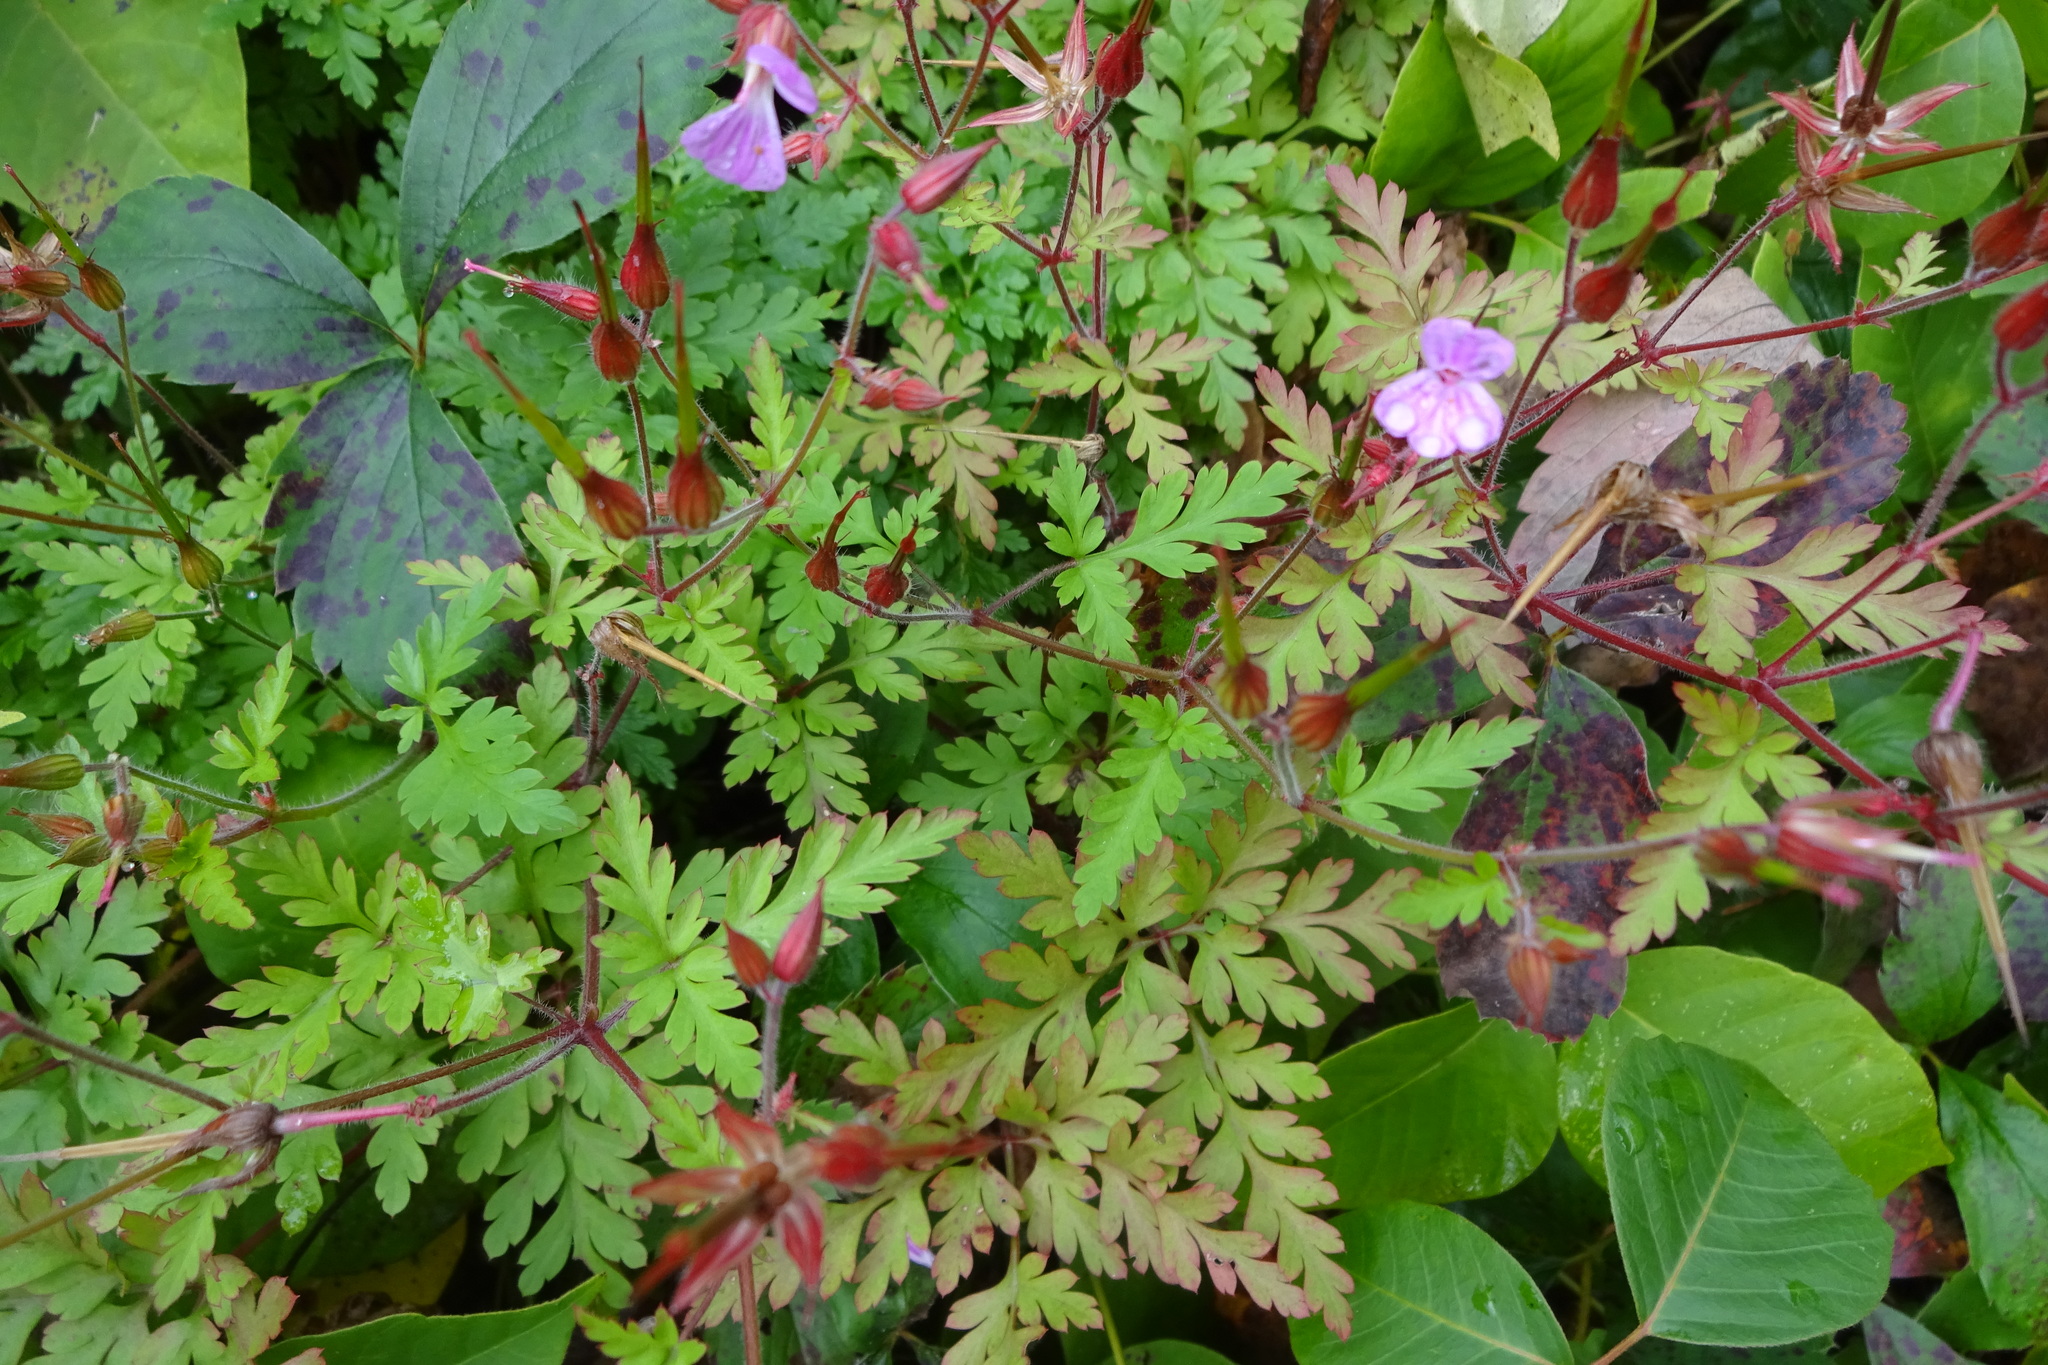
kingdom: Plantae
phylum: Tracheophyta
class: Magnoliopsida
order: Geraniales
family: Geraniaceae
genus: Geranium
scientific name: Geranium robertianum
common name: Herb-robert
